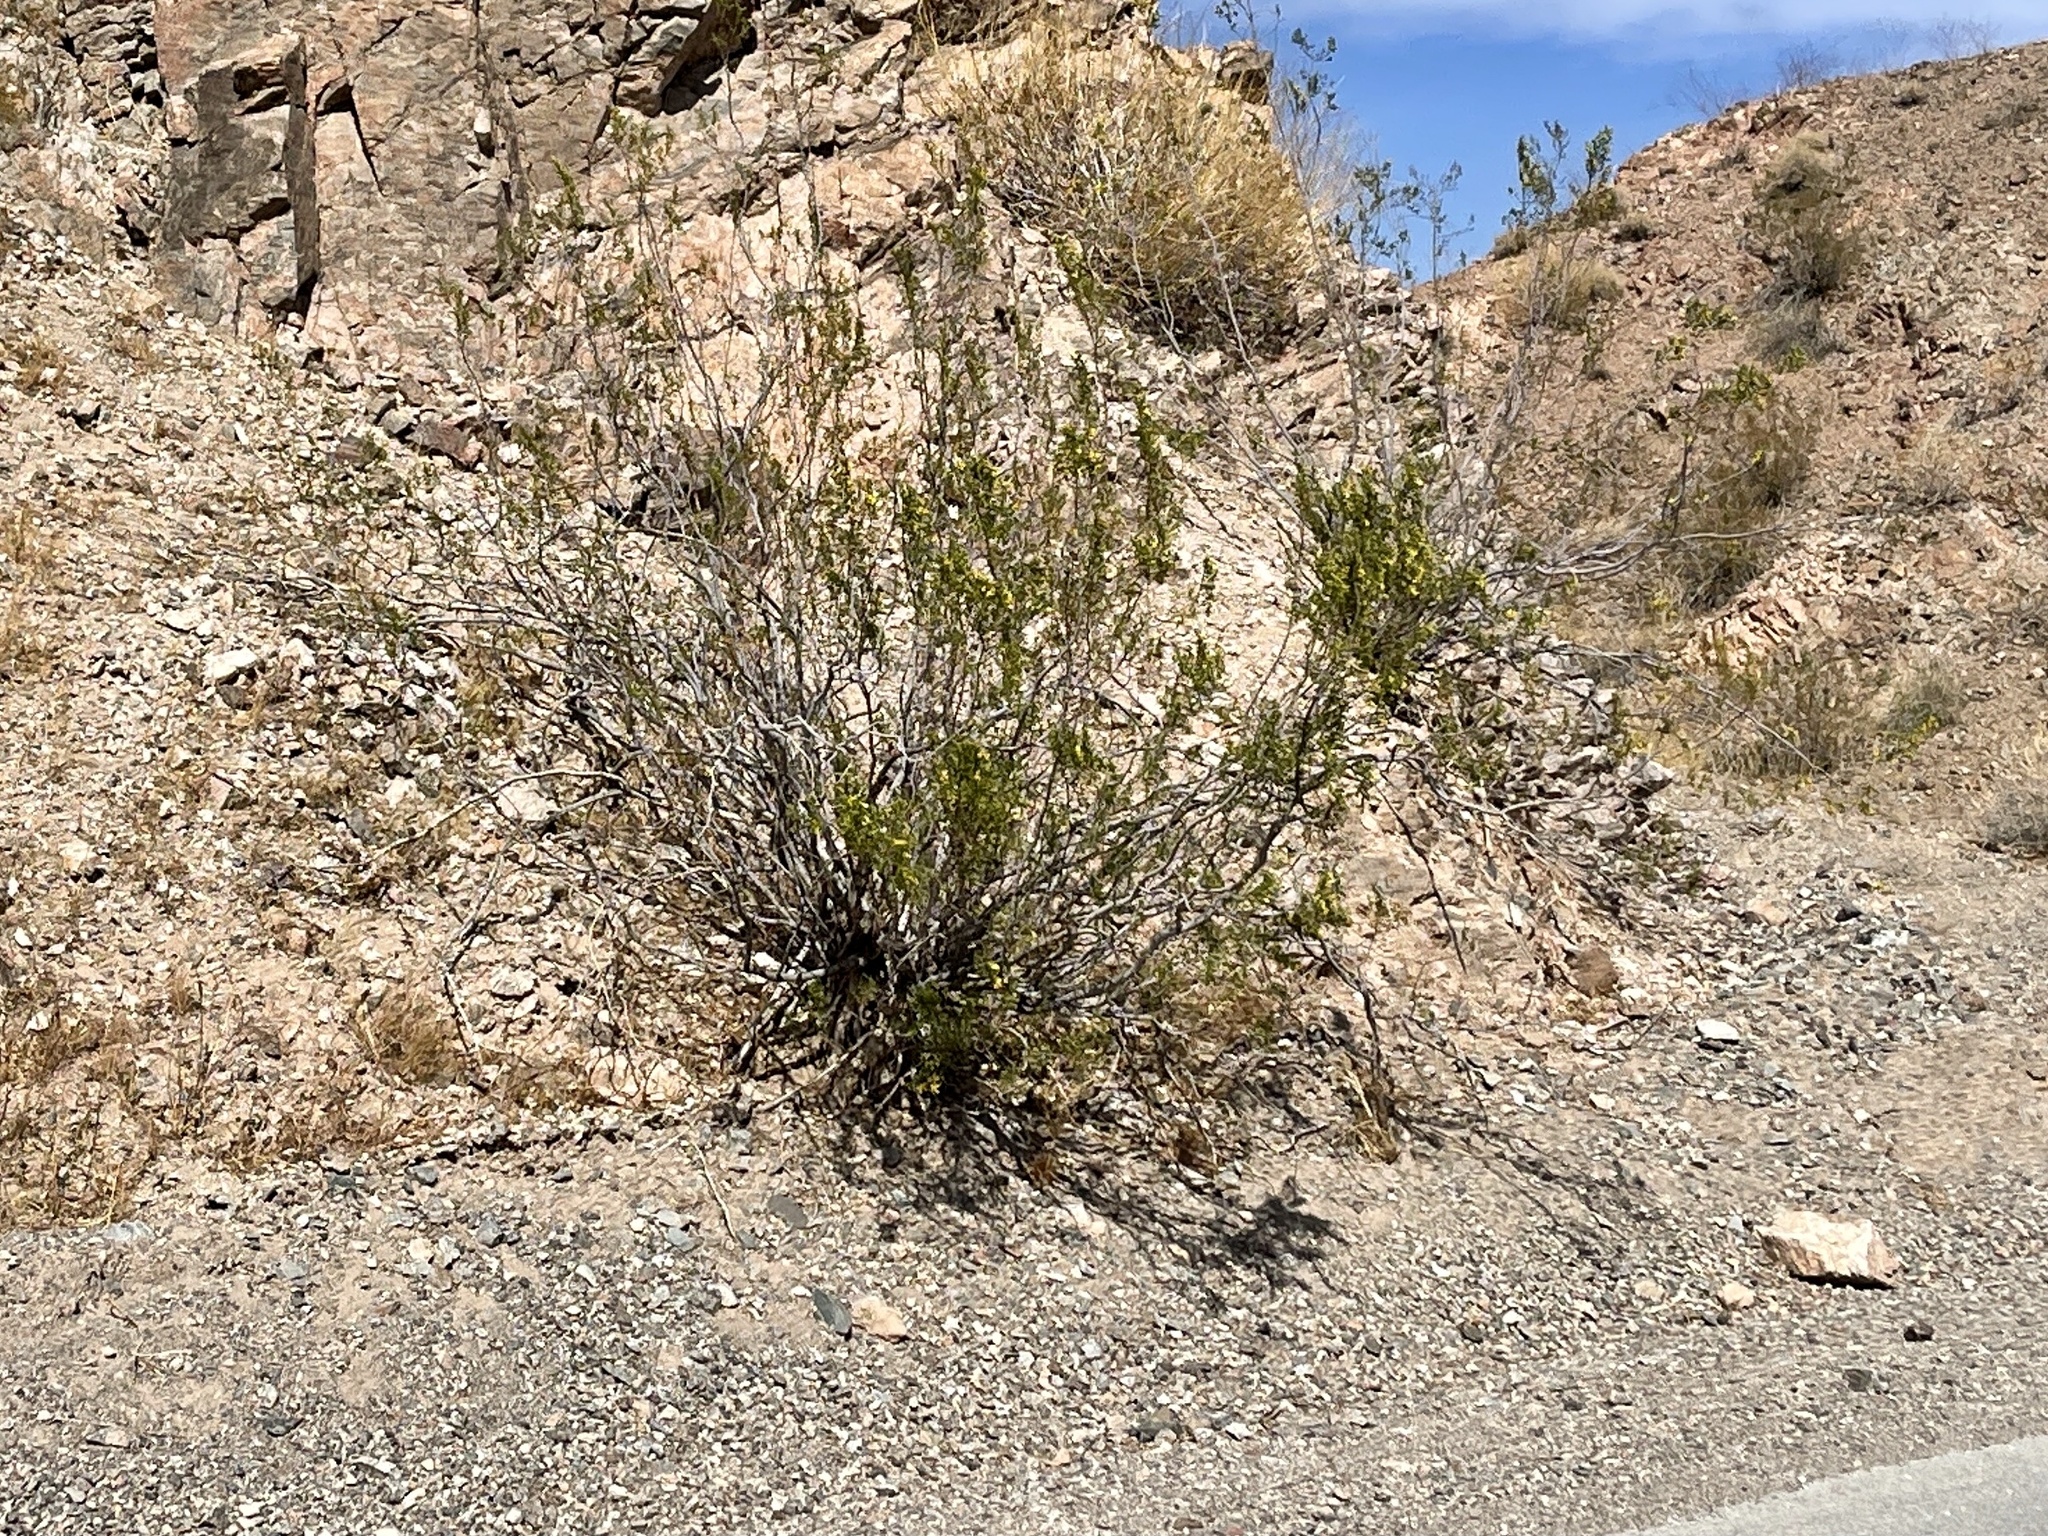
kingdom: Plantae
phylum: Tracheophyta
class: Magnoliopsida
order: Zygophyllales
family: Zygophyllaceae
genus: Larrea
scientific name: Larrea tridentata
